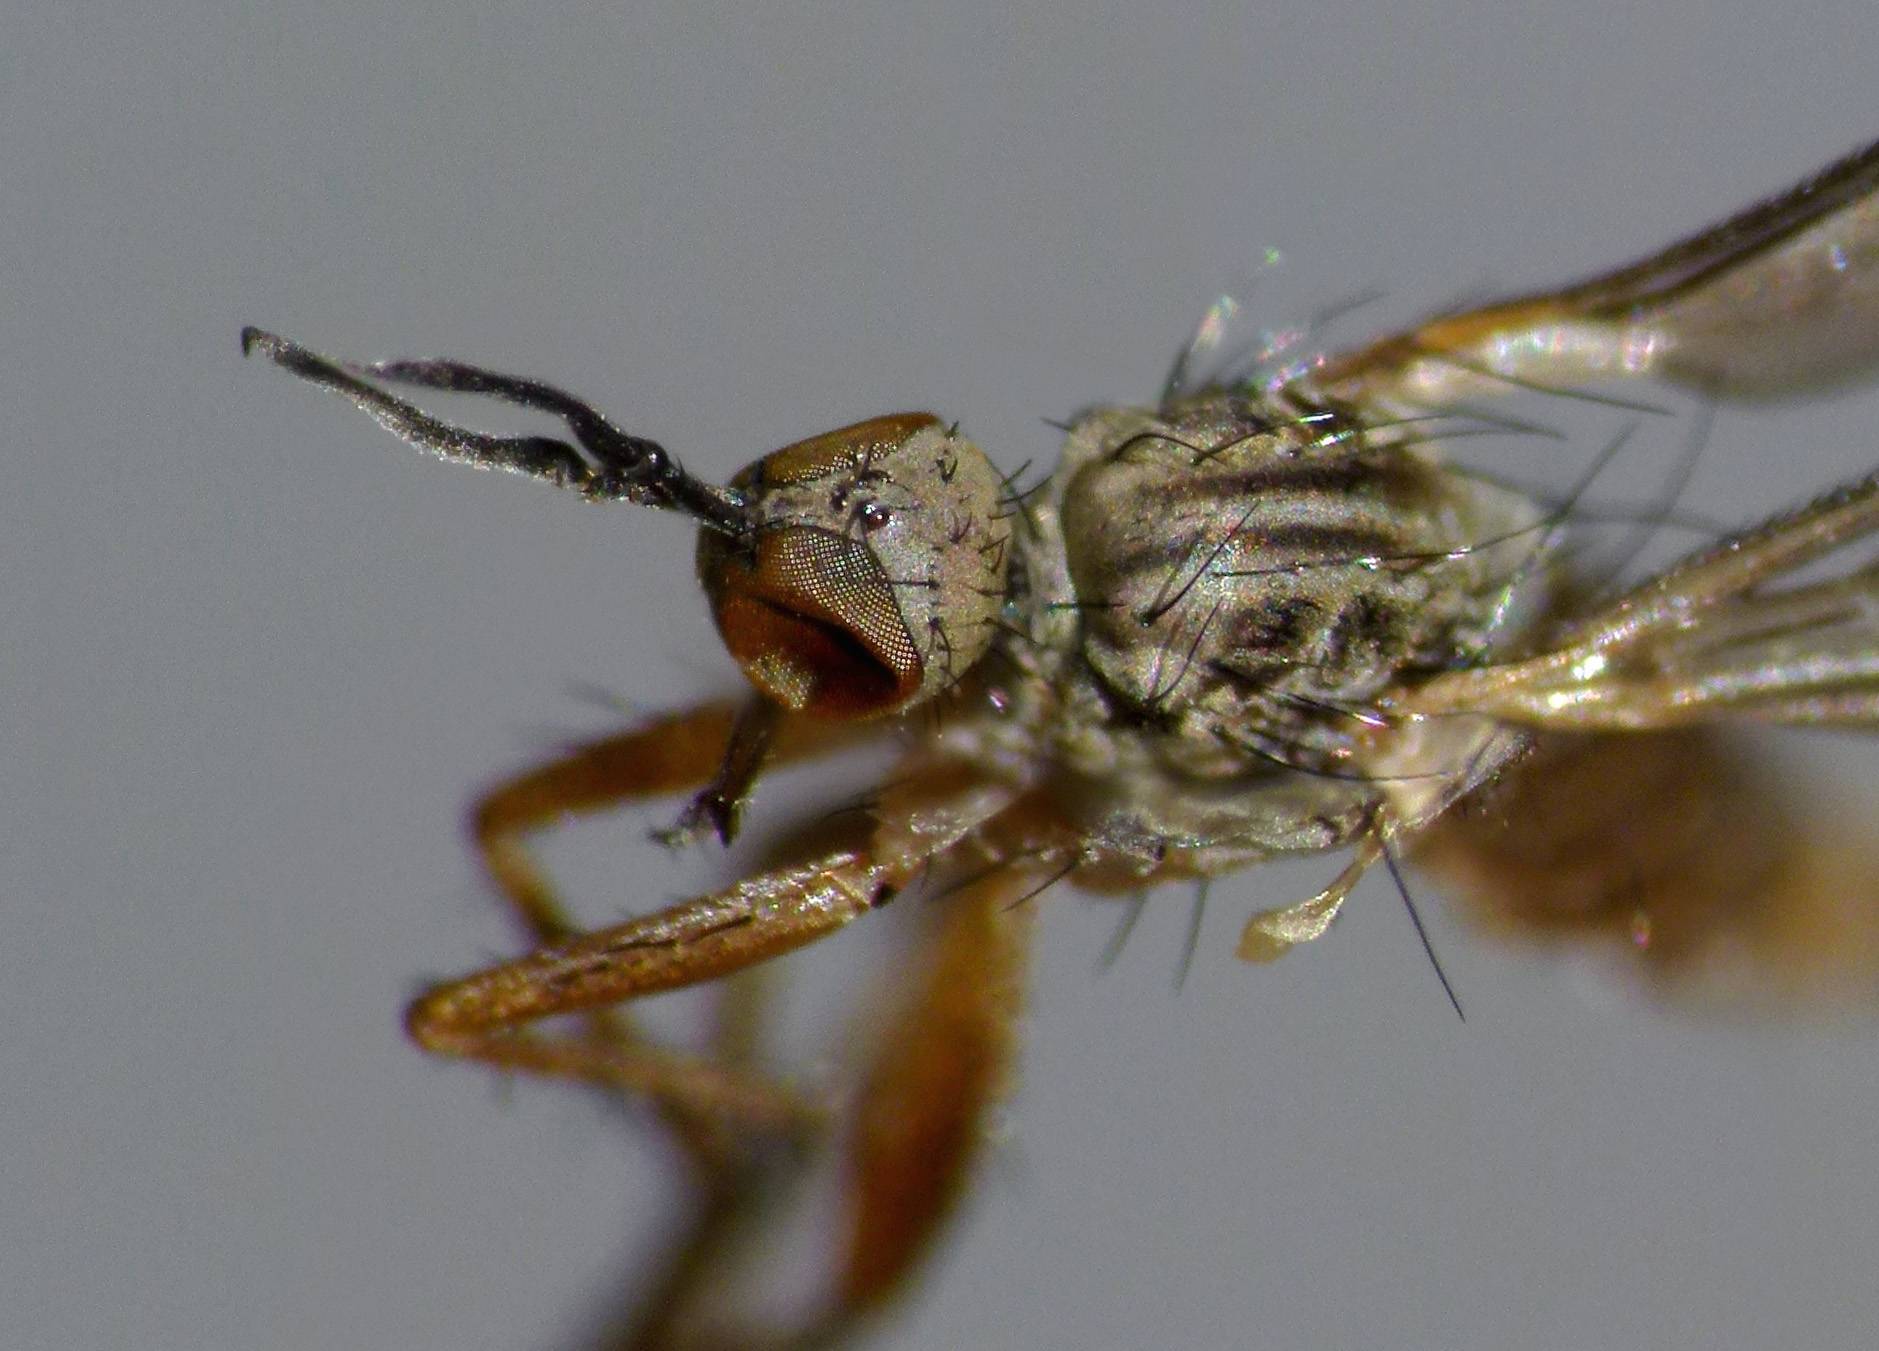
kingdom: Animalia
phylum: Arthropoda
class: Insecta
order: Diptera
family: Empididae
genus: Empidadelpha
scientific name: Empidadelpha propria
